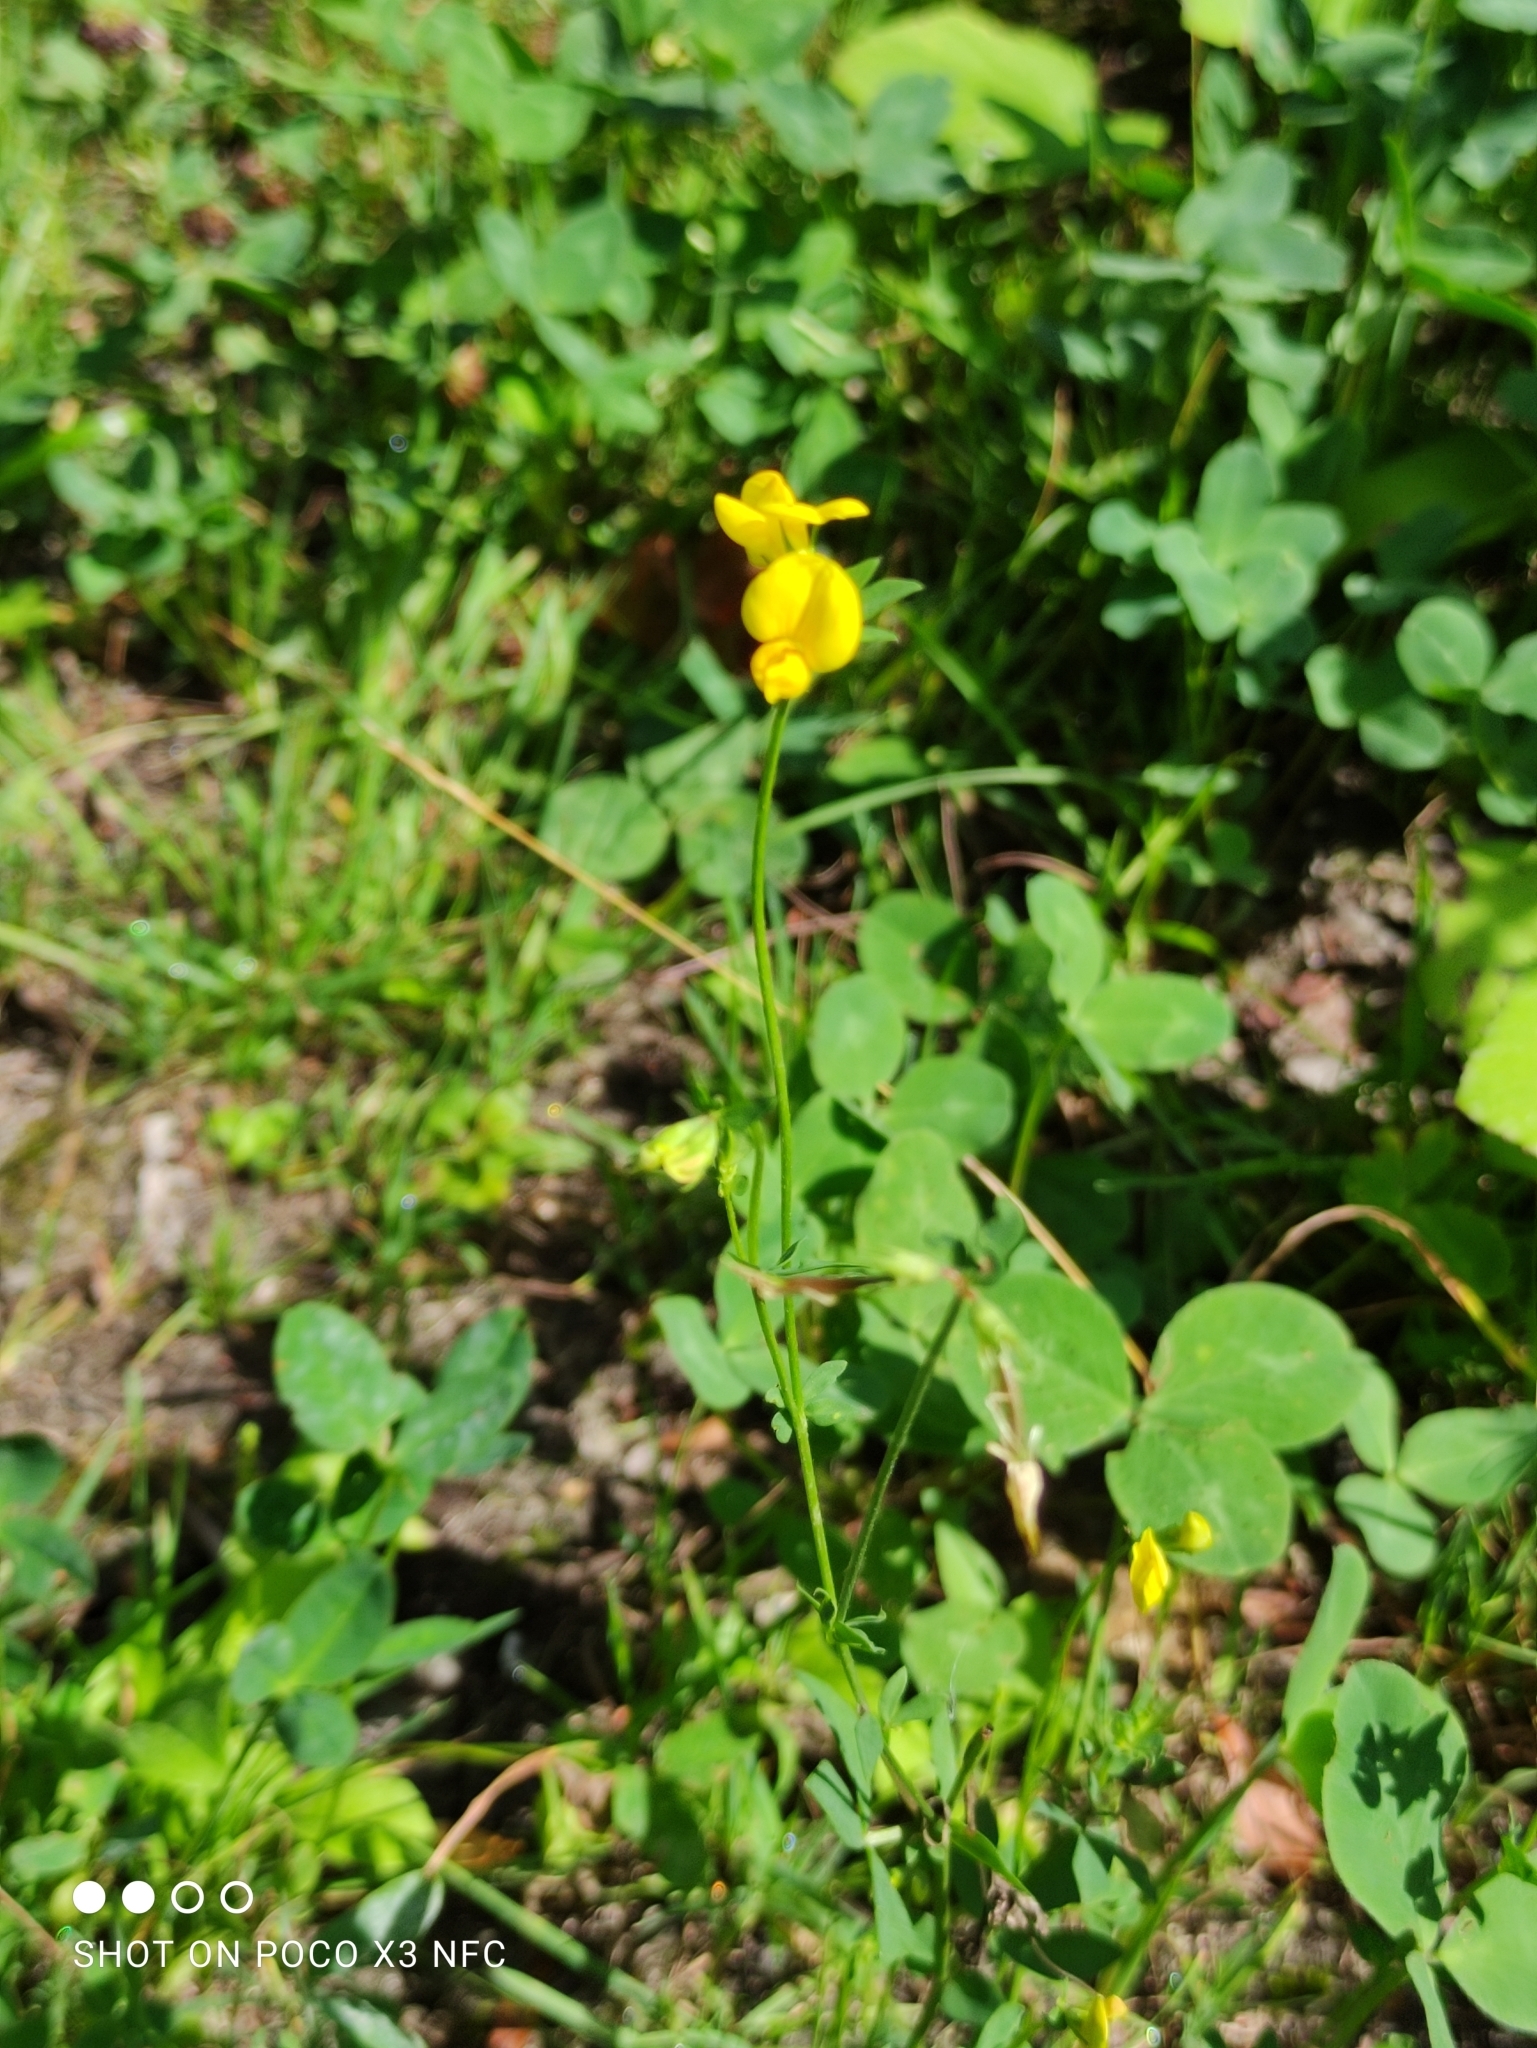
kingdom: Plantae
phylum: Tracheophyta
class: Magnoliopsida
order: Fabales
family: Fabaceae
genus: Lotus
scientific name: Lotus corniculatus
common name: Common bird's-foot-trefoil
